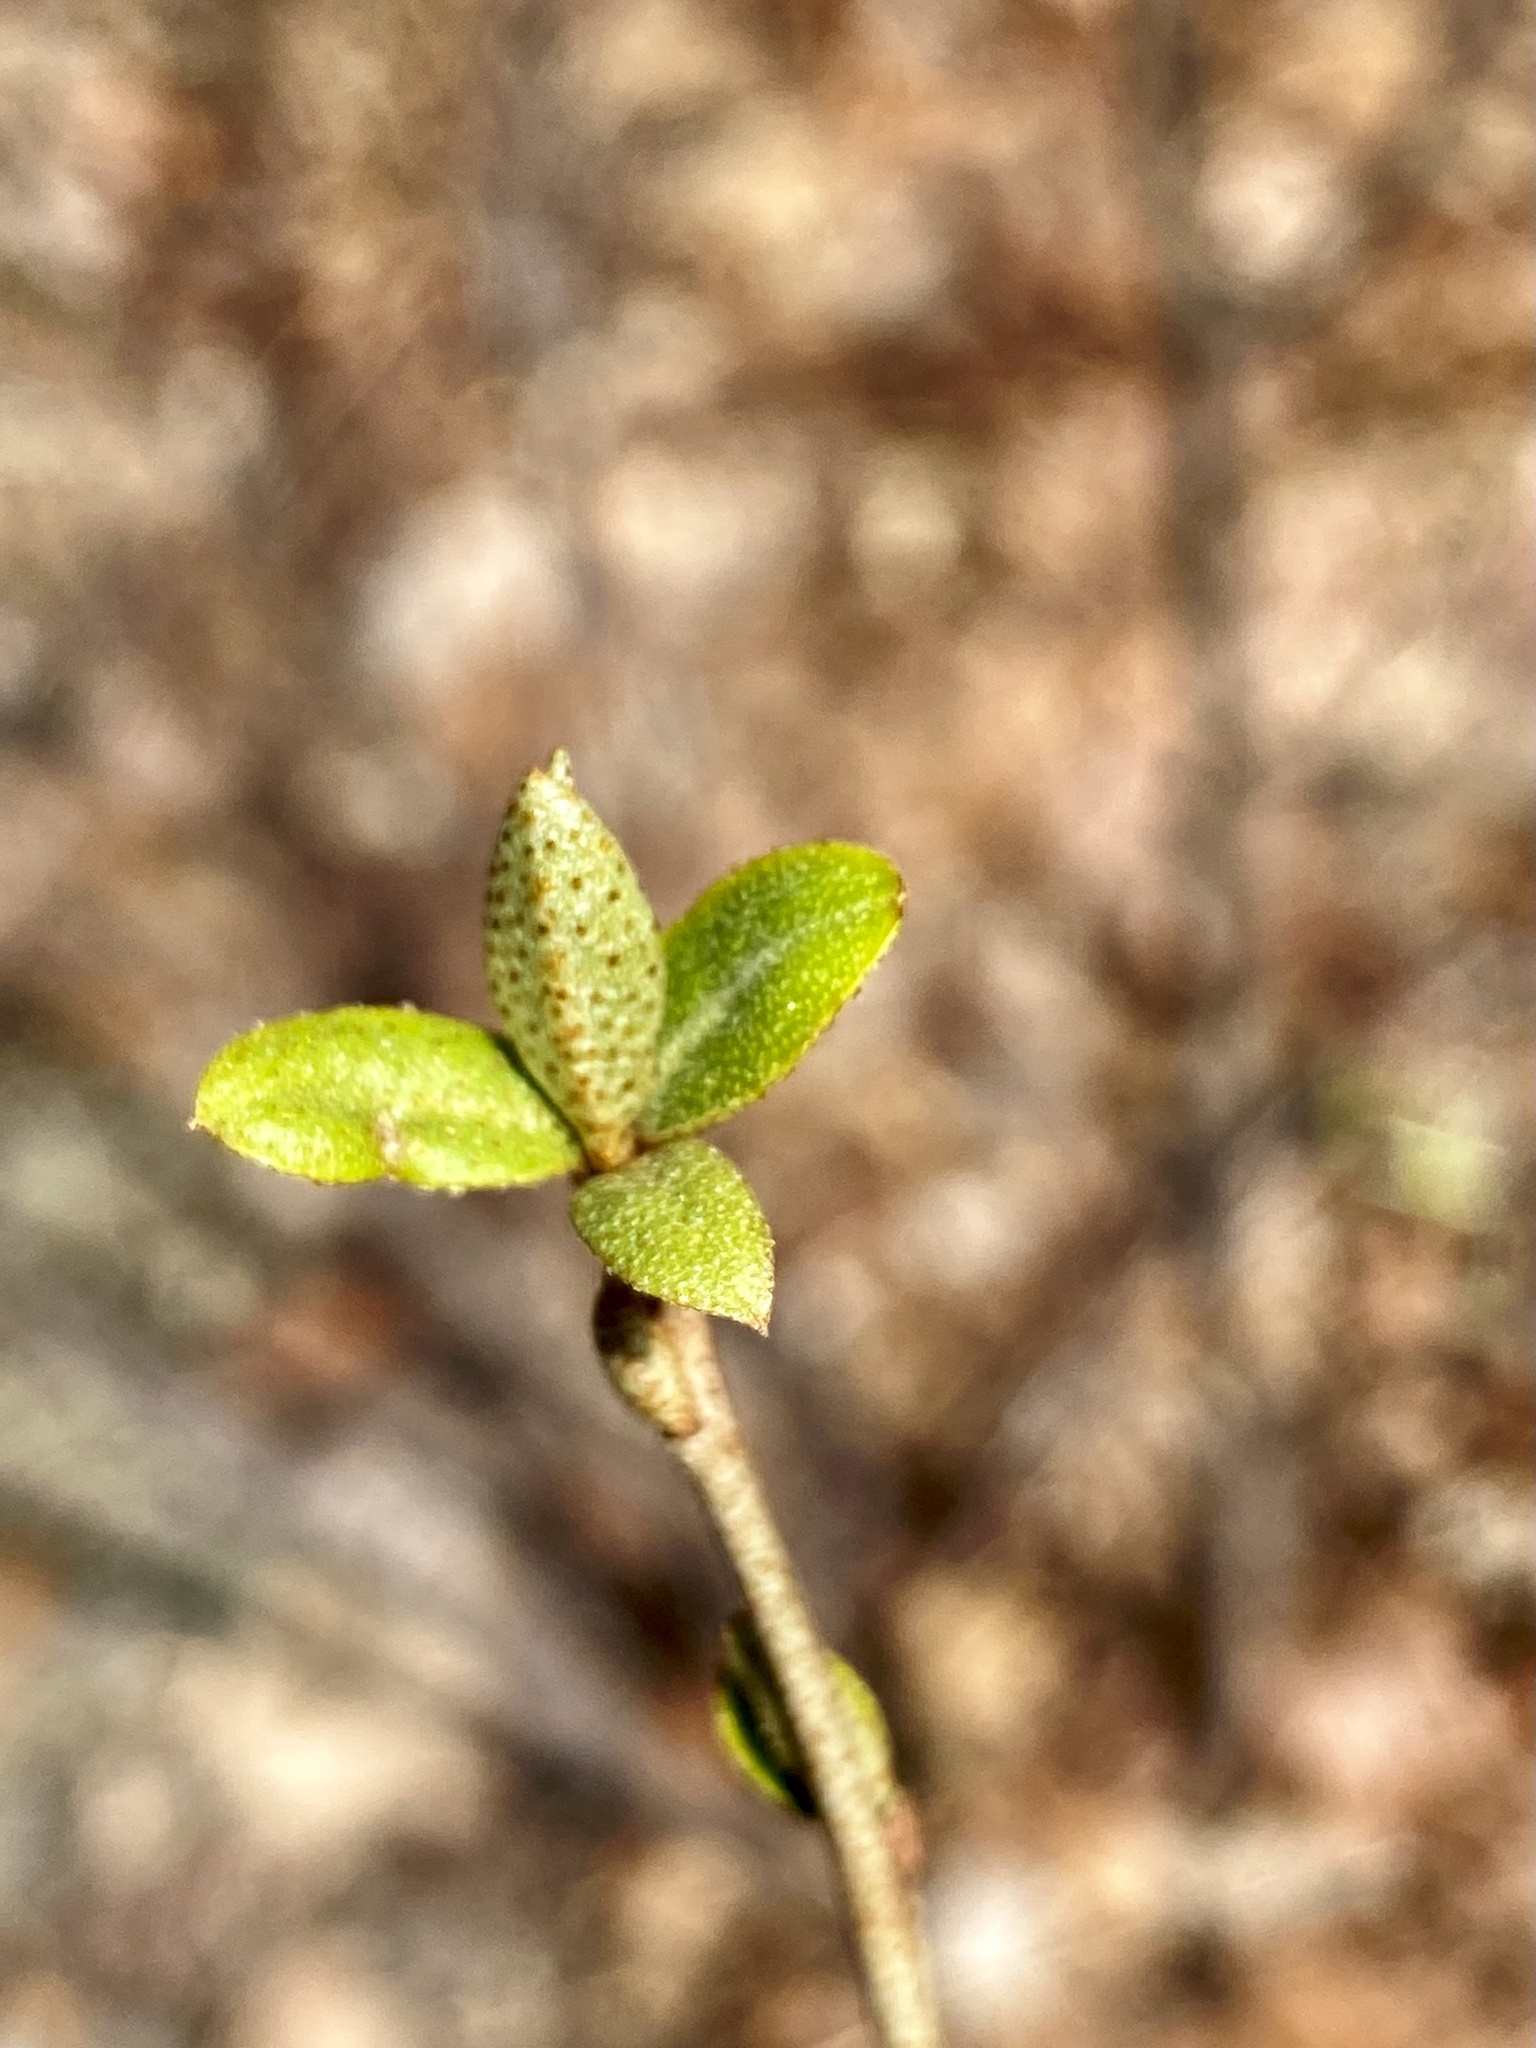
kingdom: Plantae
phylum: Tracheophyta
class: Magnoliopsida
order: Rosales
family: Elaeagnaceae
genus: Elaeagnus
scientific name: Elaeagnus umbellata
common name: Autumn olive
